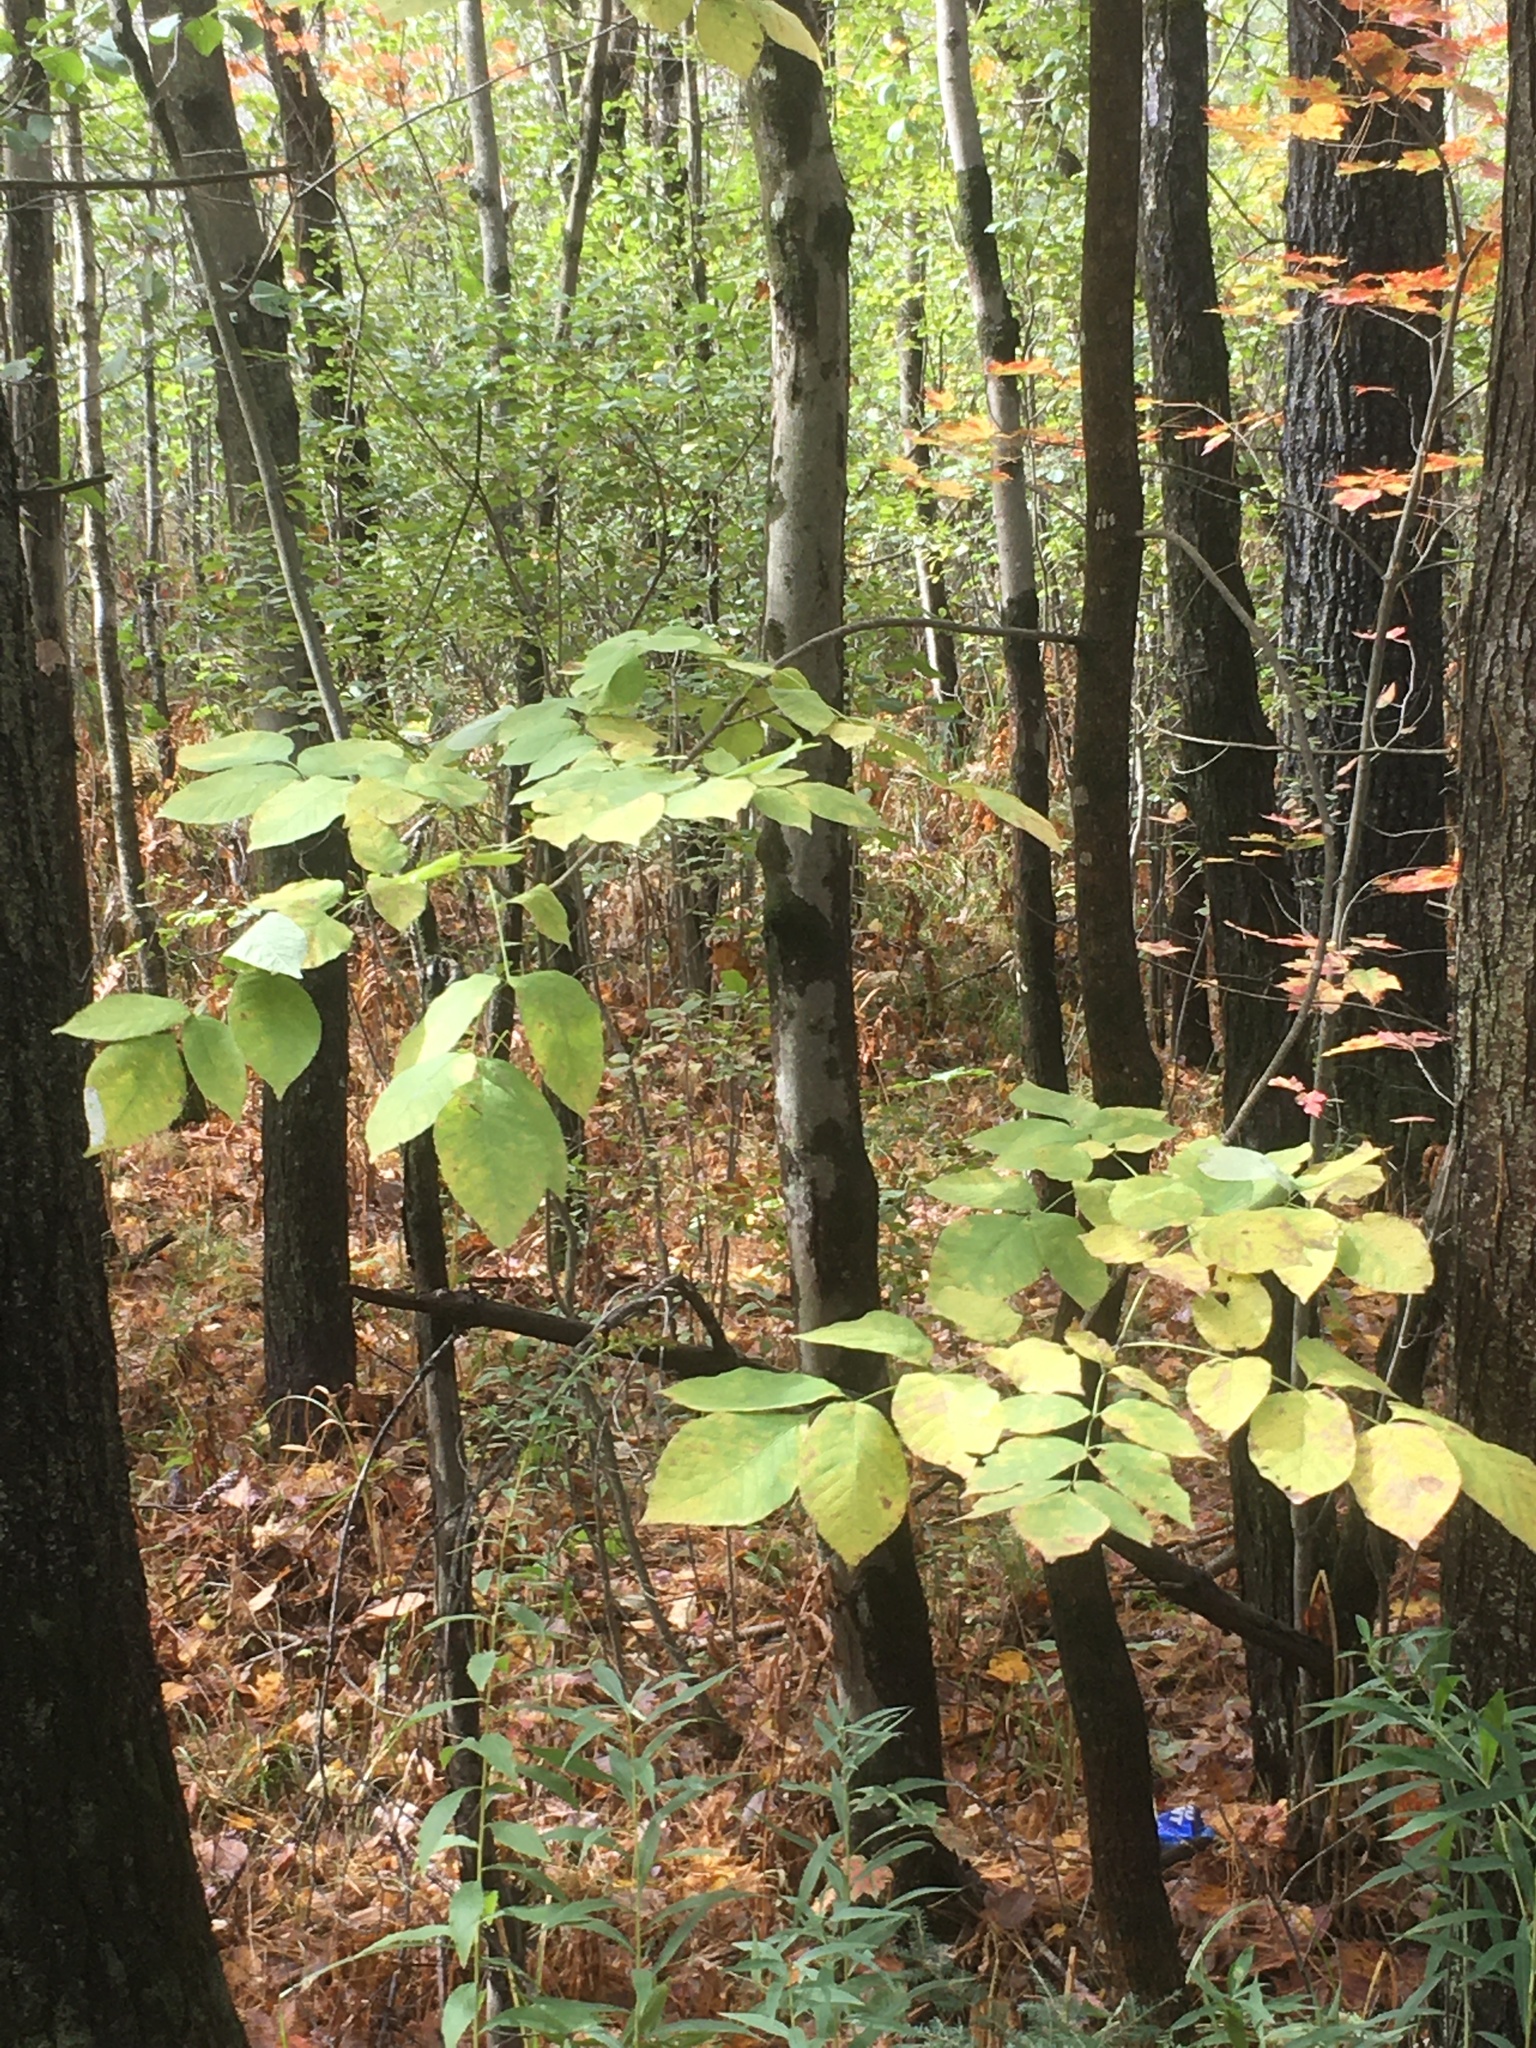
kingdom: Plantae
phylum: Tracheophyta
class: Magnoliopsida
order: Lamiales
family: Oleaceae
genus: Fraxinus
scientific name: Fraxinus nigra
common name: Black ash
